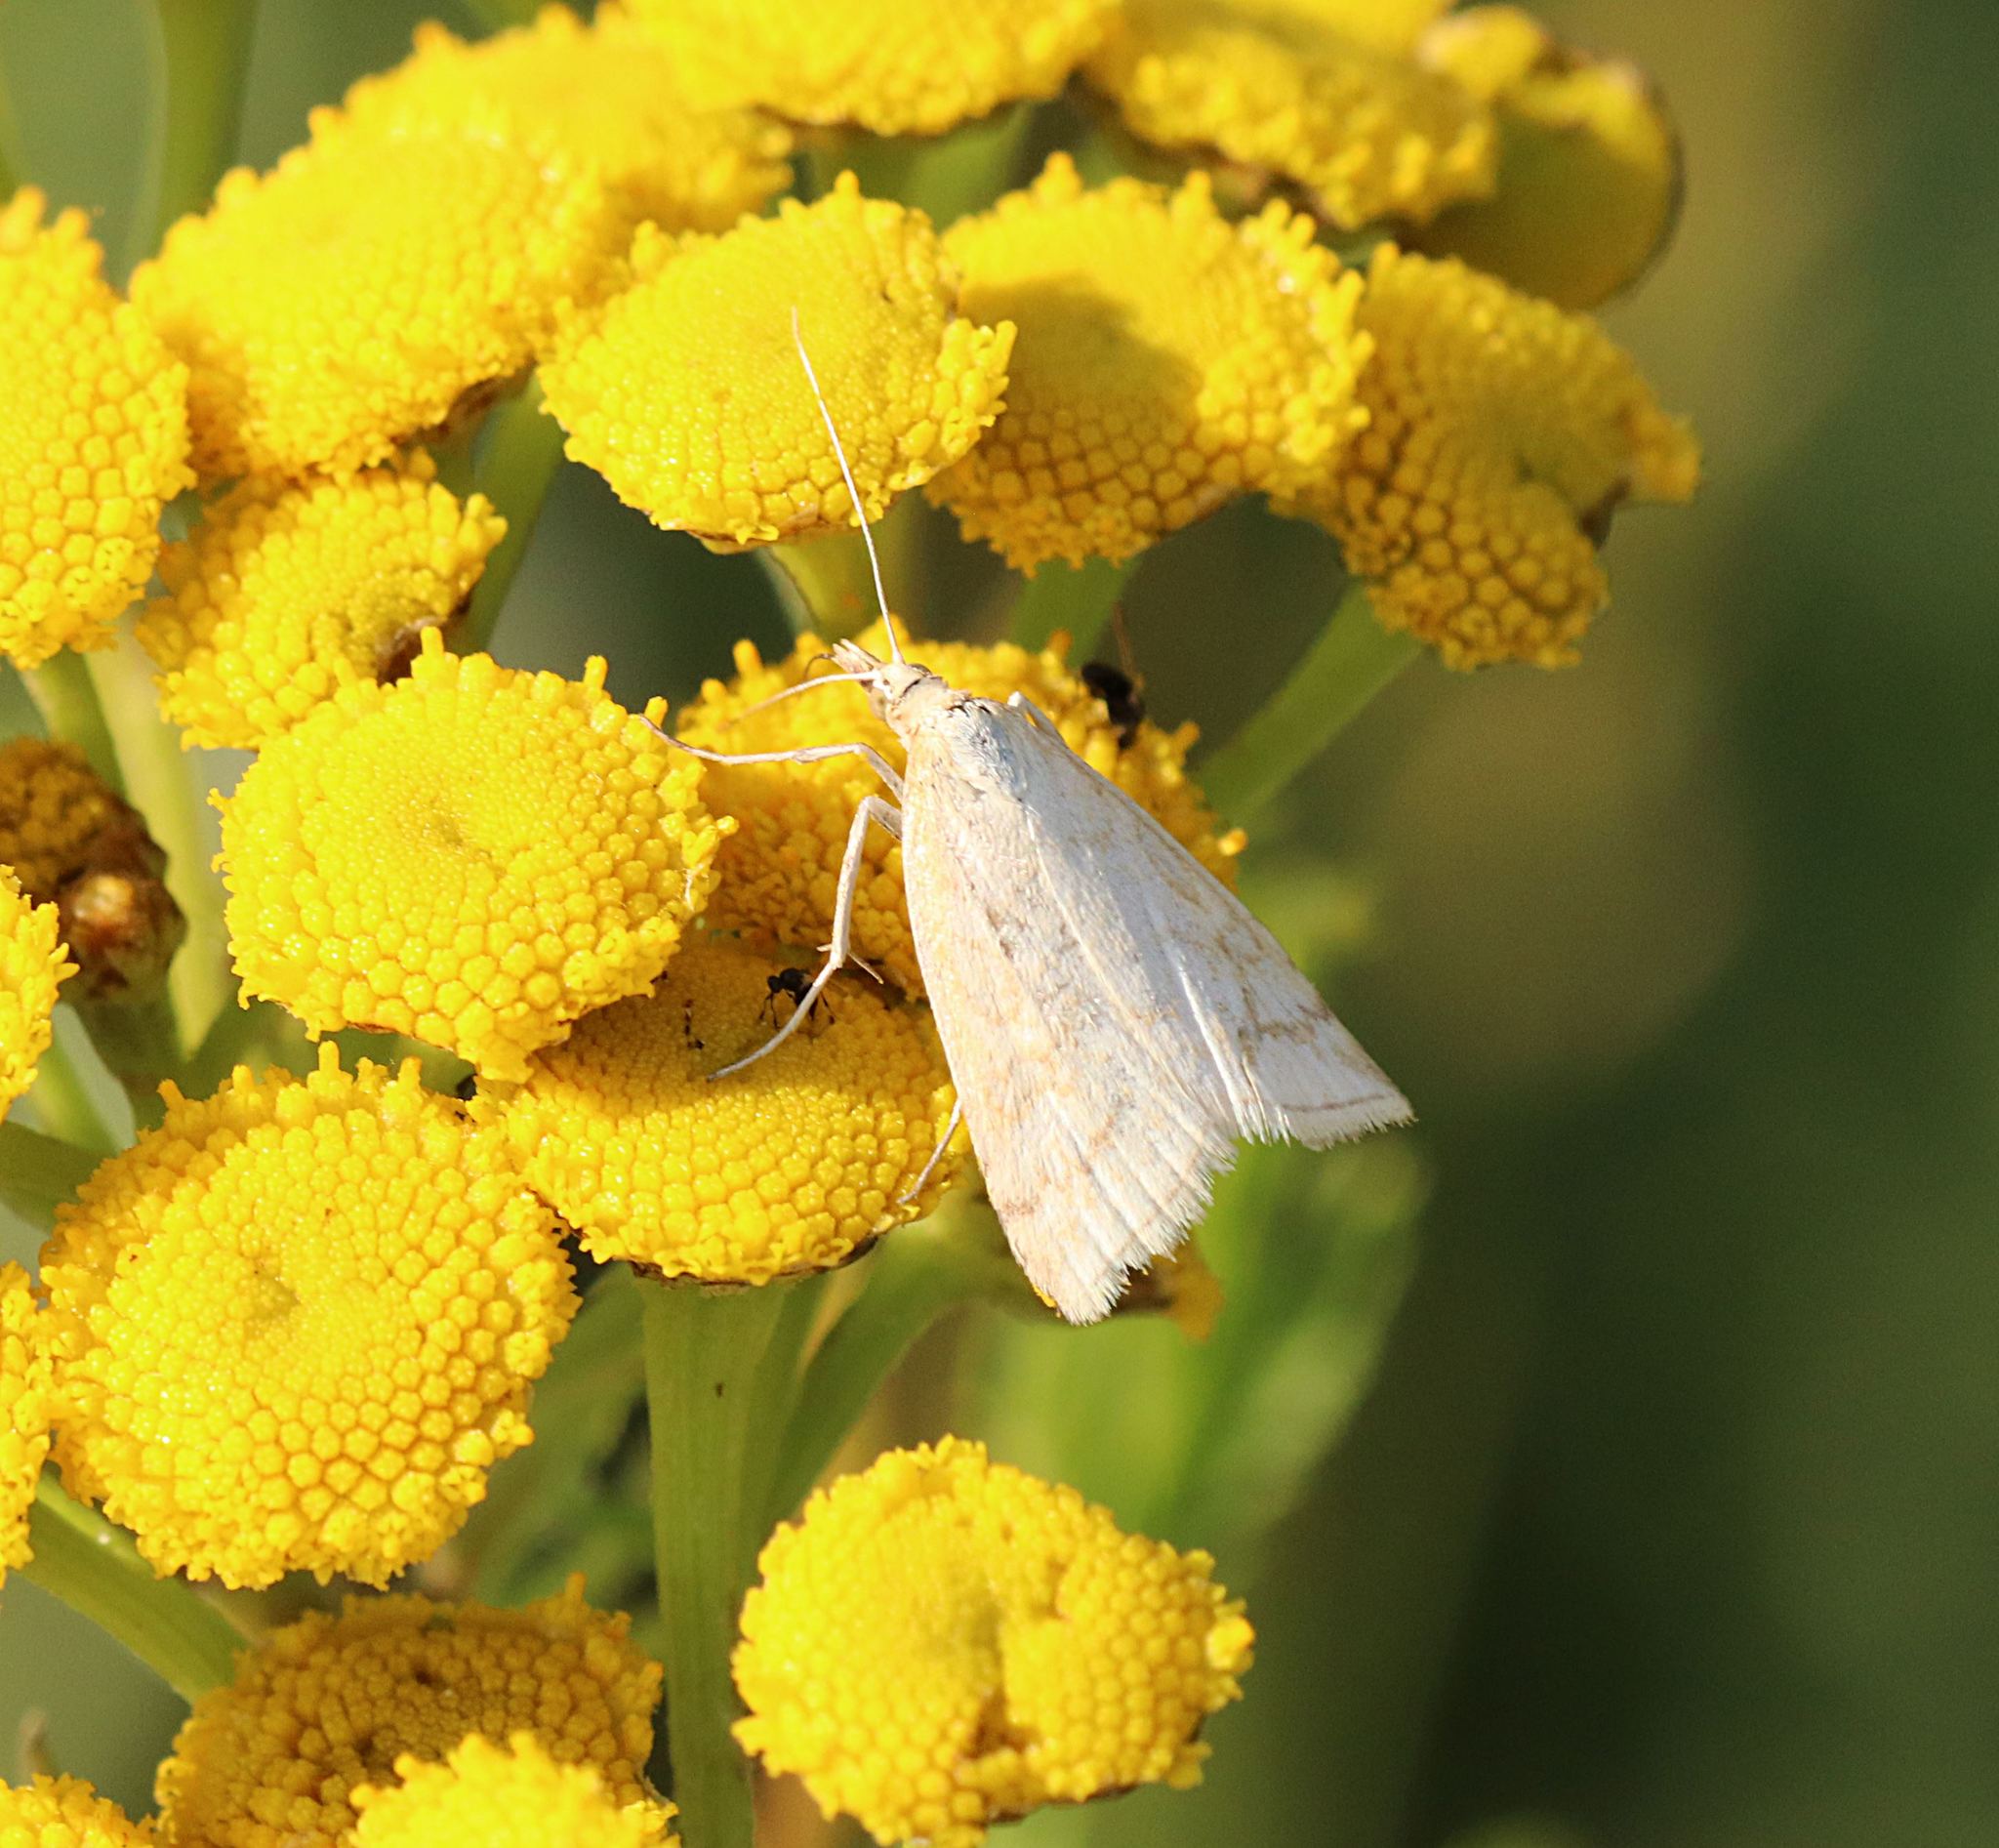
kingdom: Animalia
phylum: Arthropoda
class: Insecta
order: Lepidoptera
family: Crambidae
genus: Udea
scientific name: Udea lutealis
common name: Pale straw pearl
